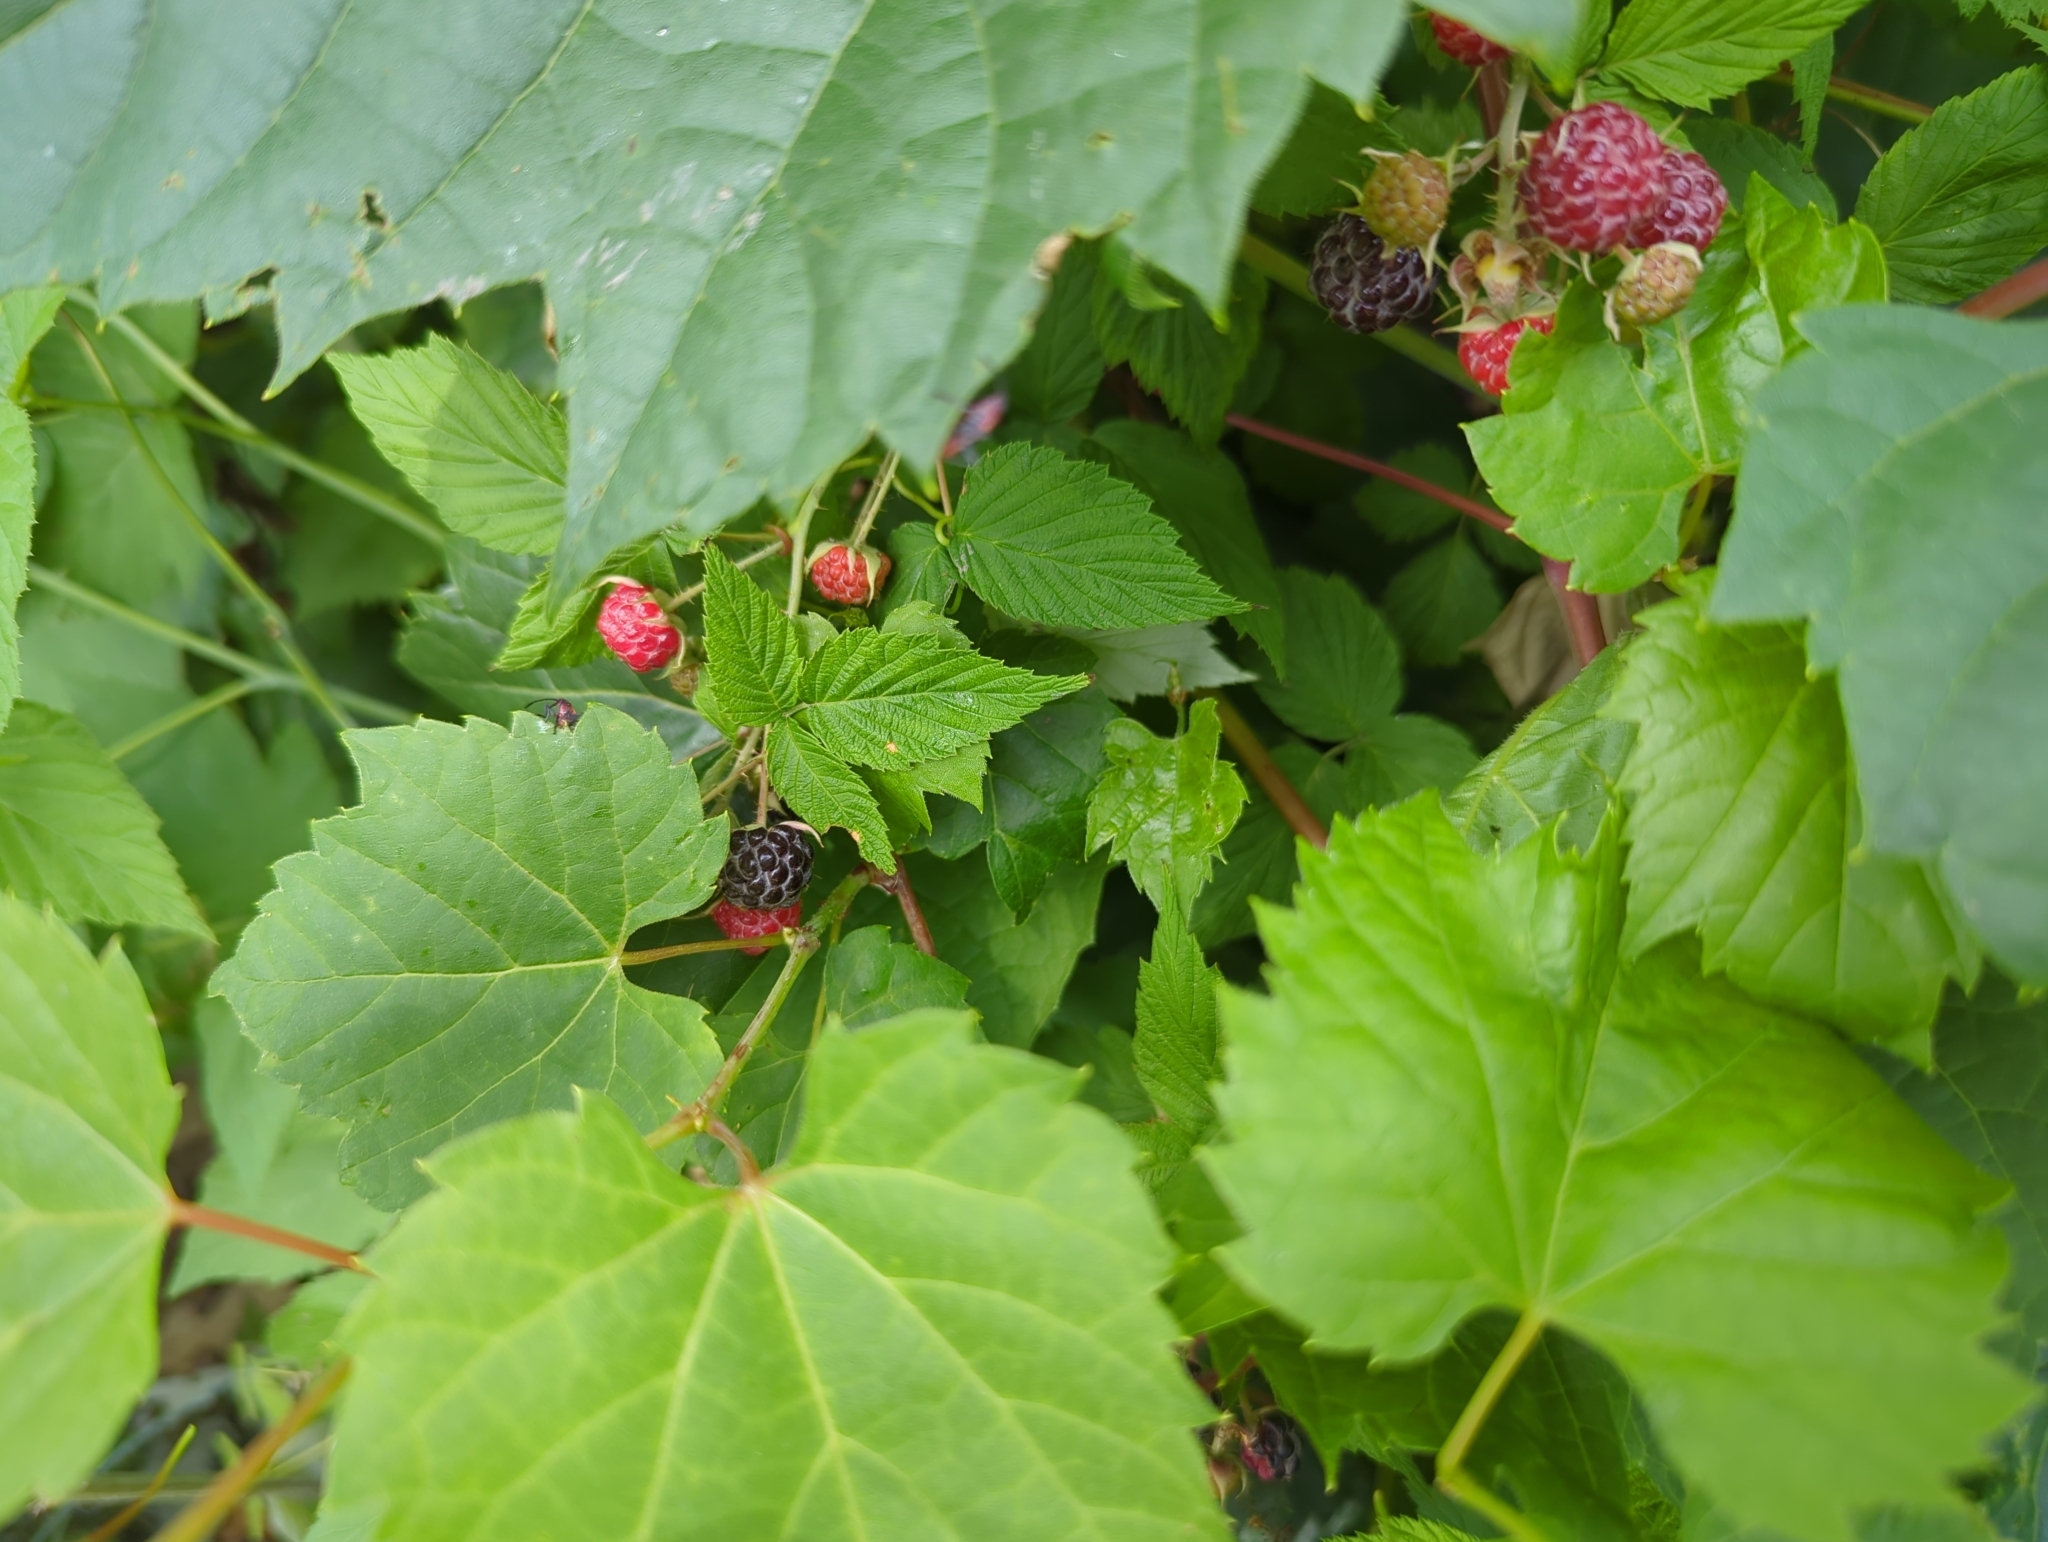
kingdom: Plantae
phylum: Tracheophyta
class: Magnoliopsida
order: Rosales
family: Rosaceae
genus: Rubus
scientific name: Rubus occidentalis
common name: Black raspberry
